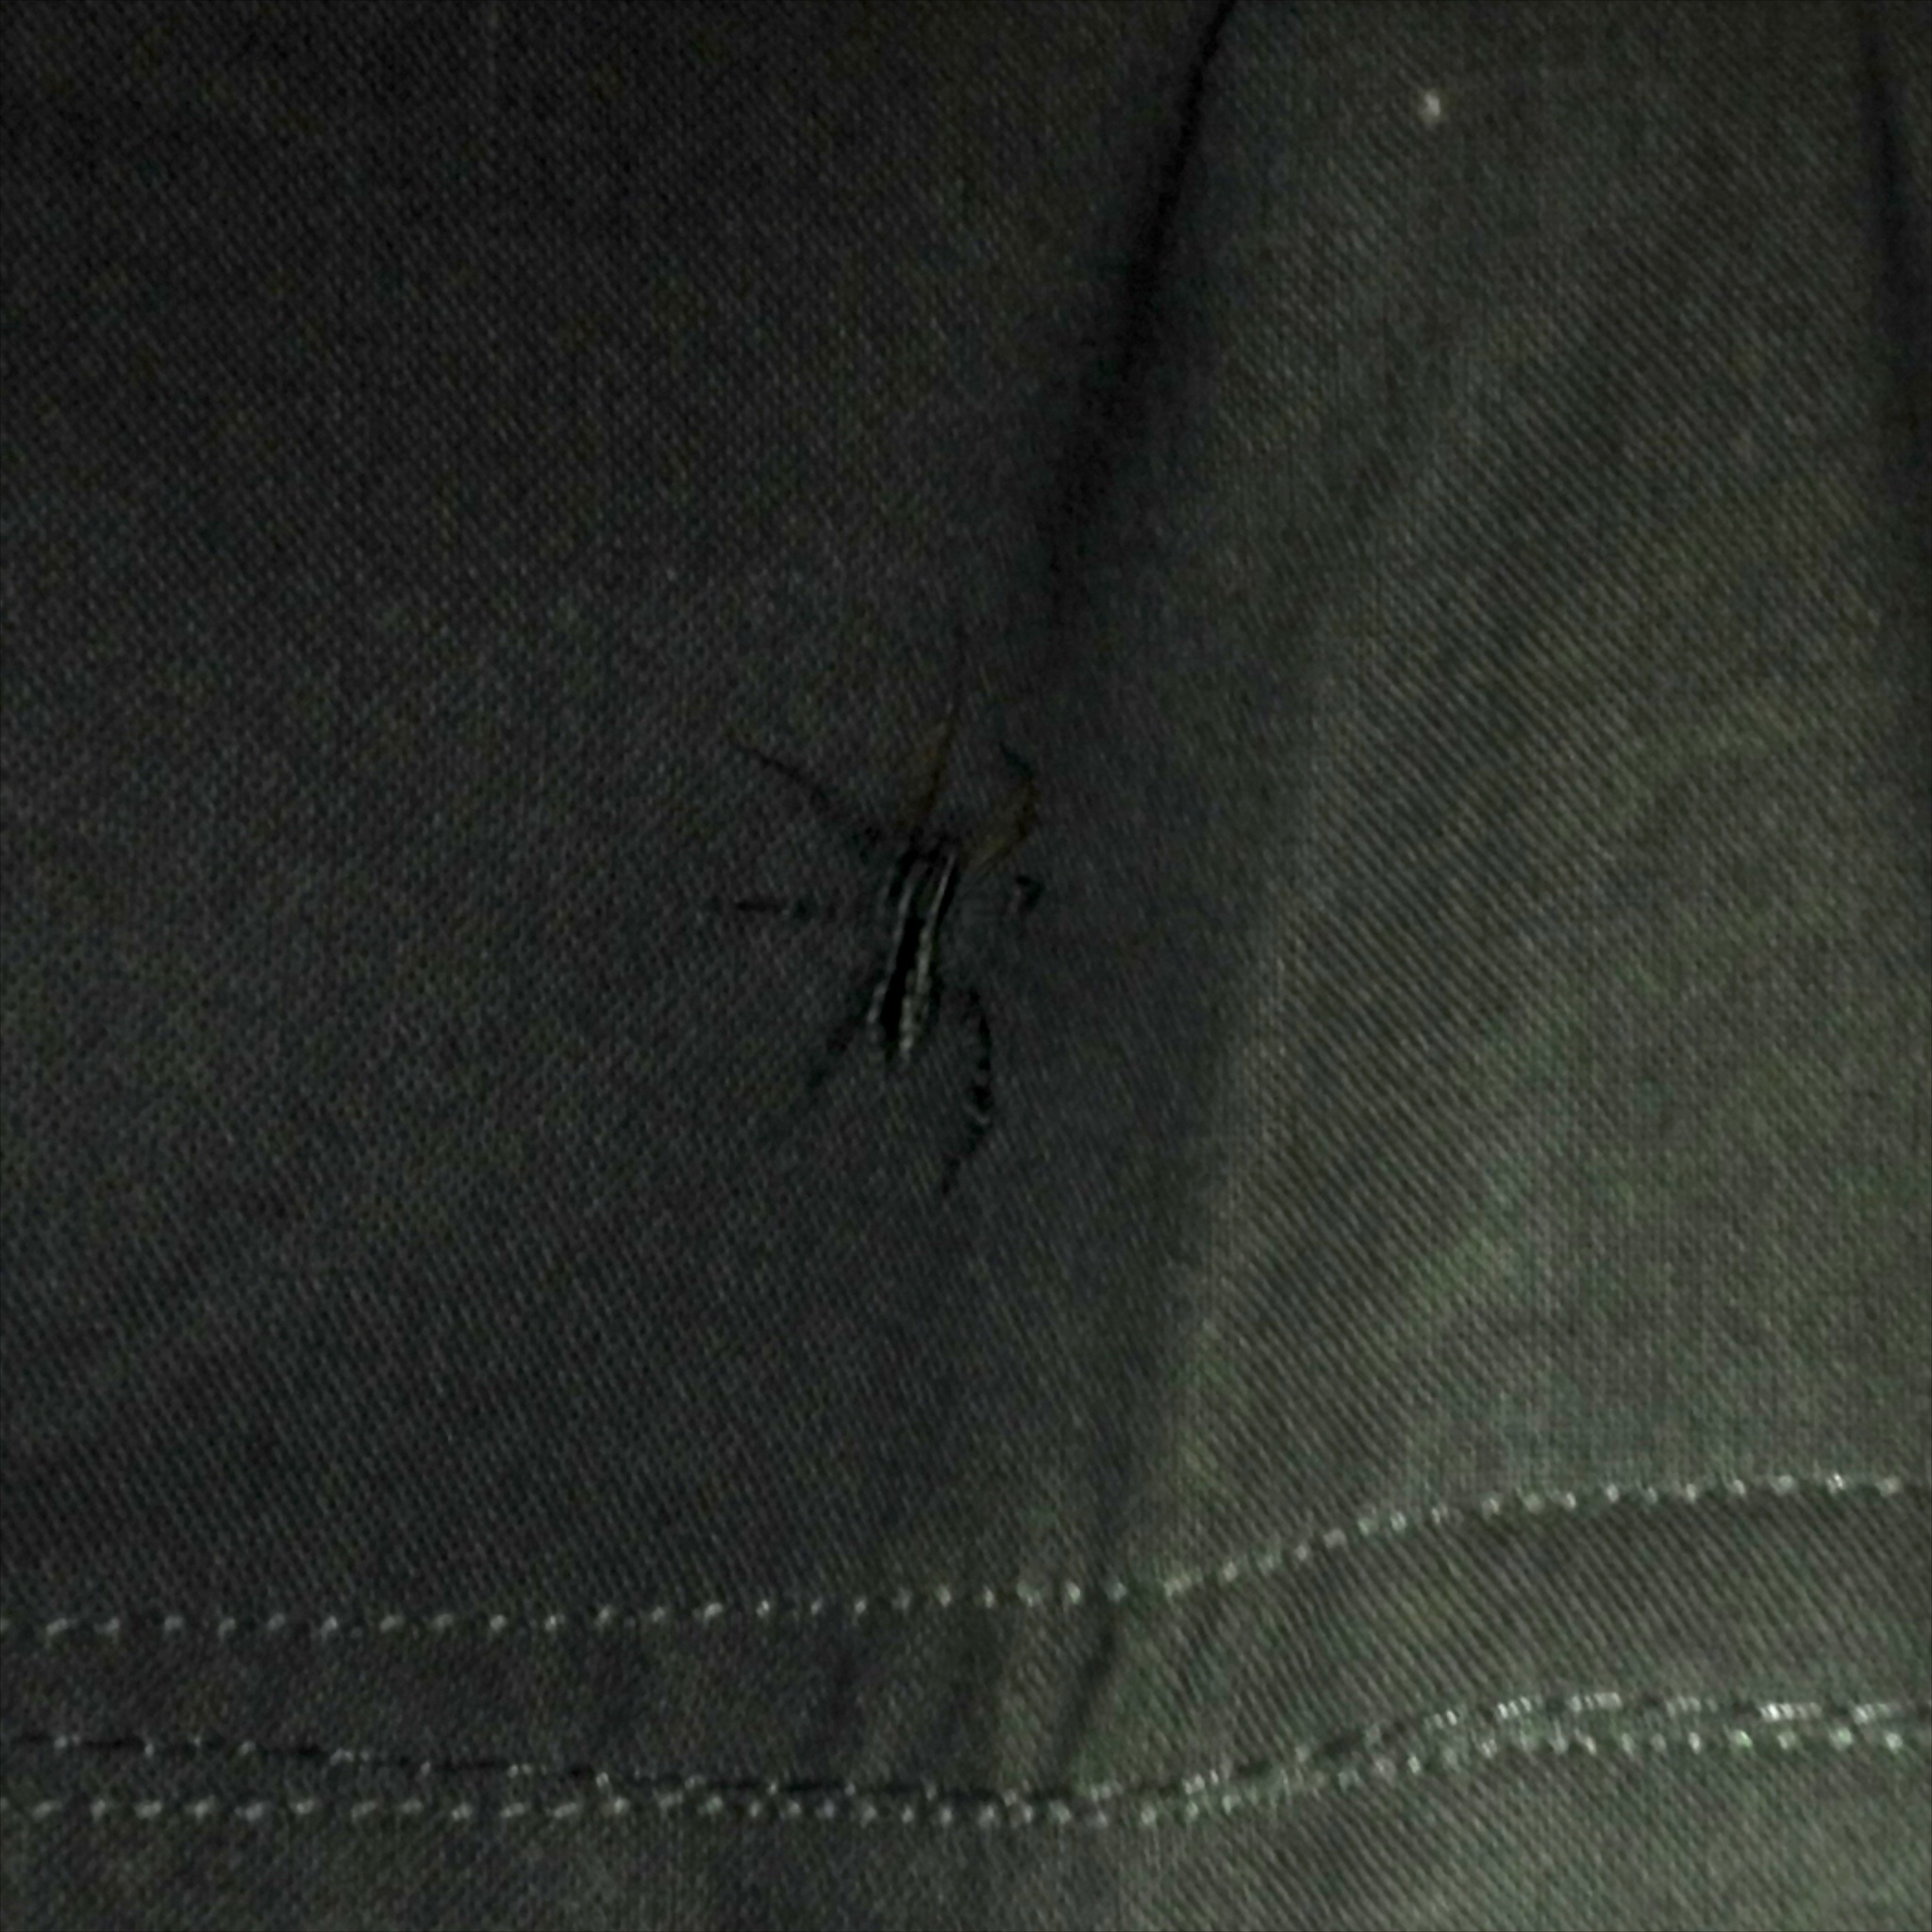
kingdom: Animalia
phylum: Arthropoda
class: Arachnida
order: Araneae
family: Corinnidae
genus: Nyssus
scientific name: Nyssus coloripes
